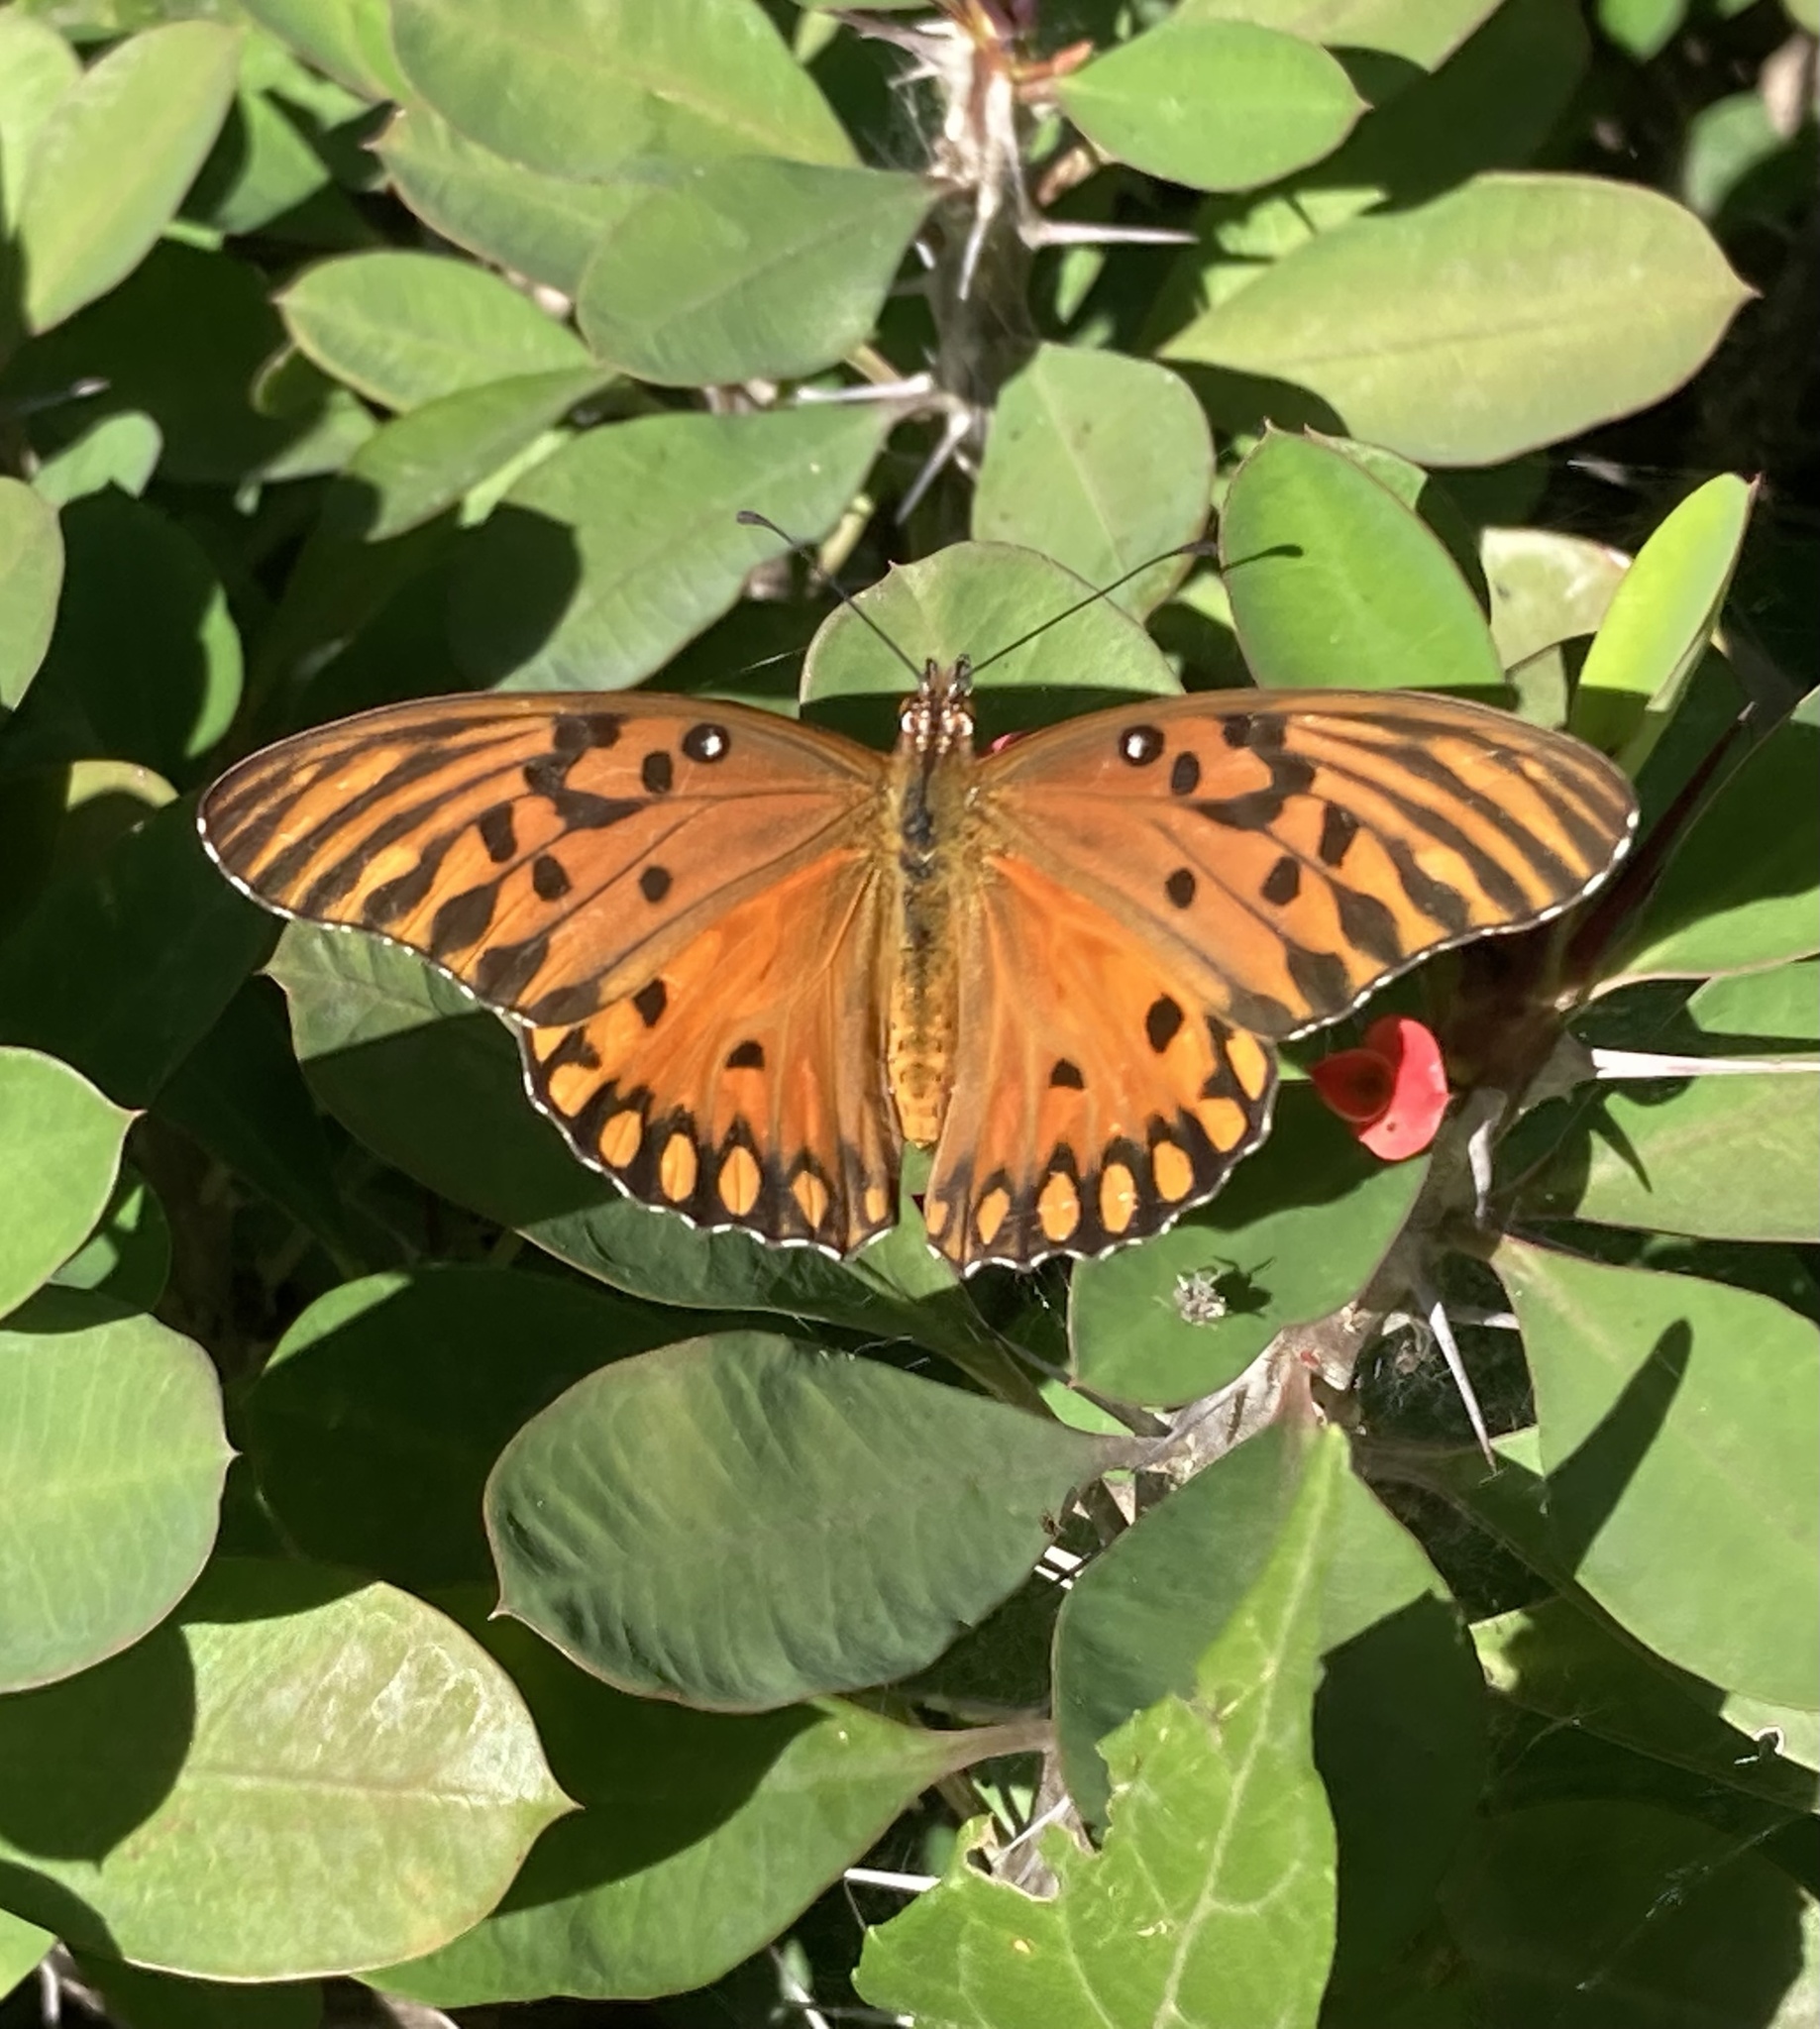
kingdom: Animalia
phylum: Arthropoda
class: Insecta
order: Lepidoptera
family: Nymphalidae
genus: Dione
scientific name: Dione vanillae
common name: Gulf fritillary
